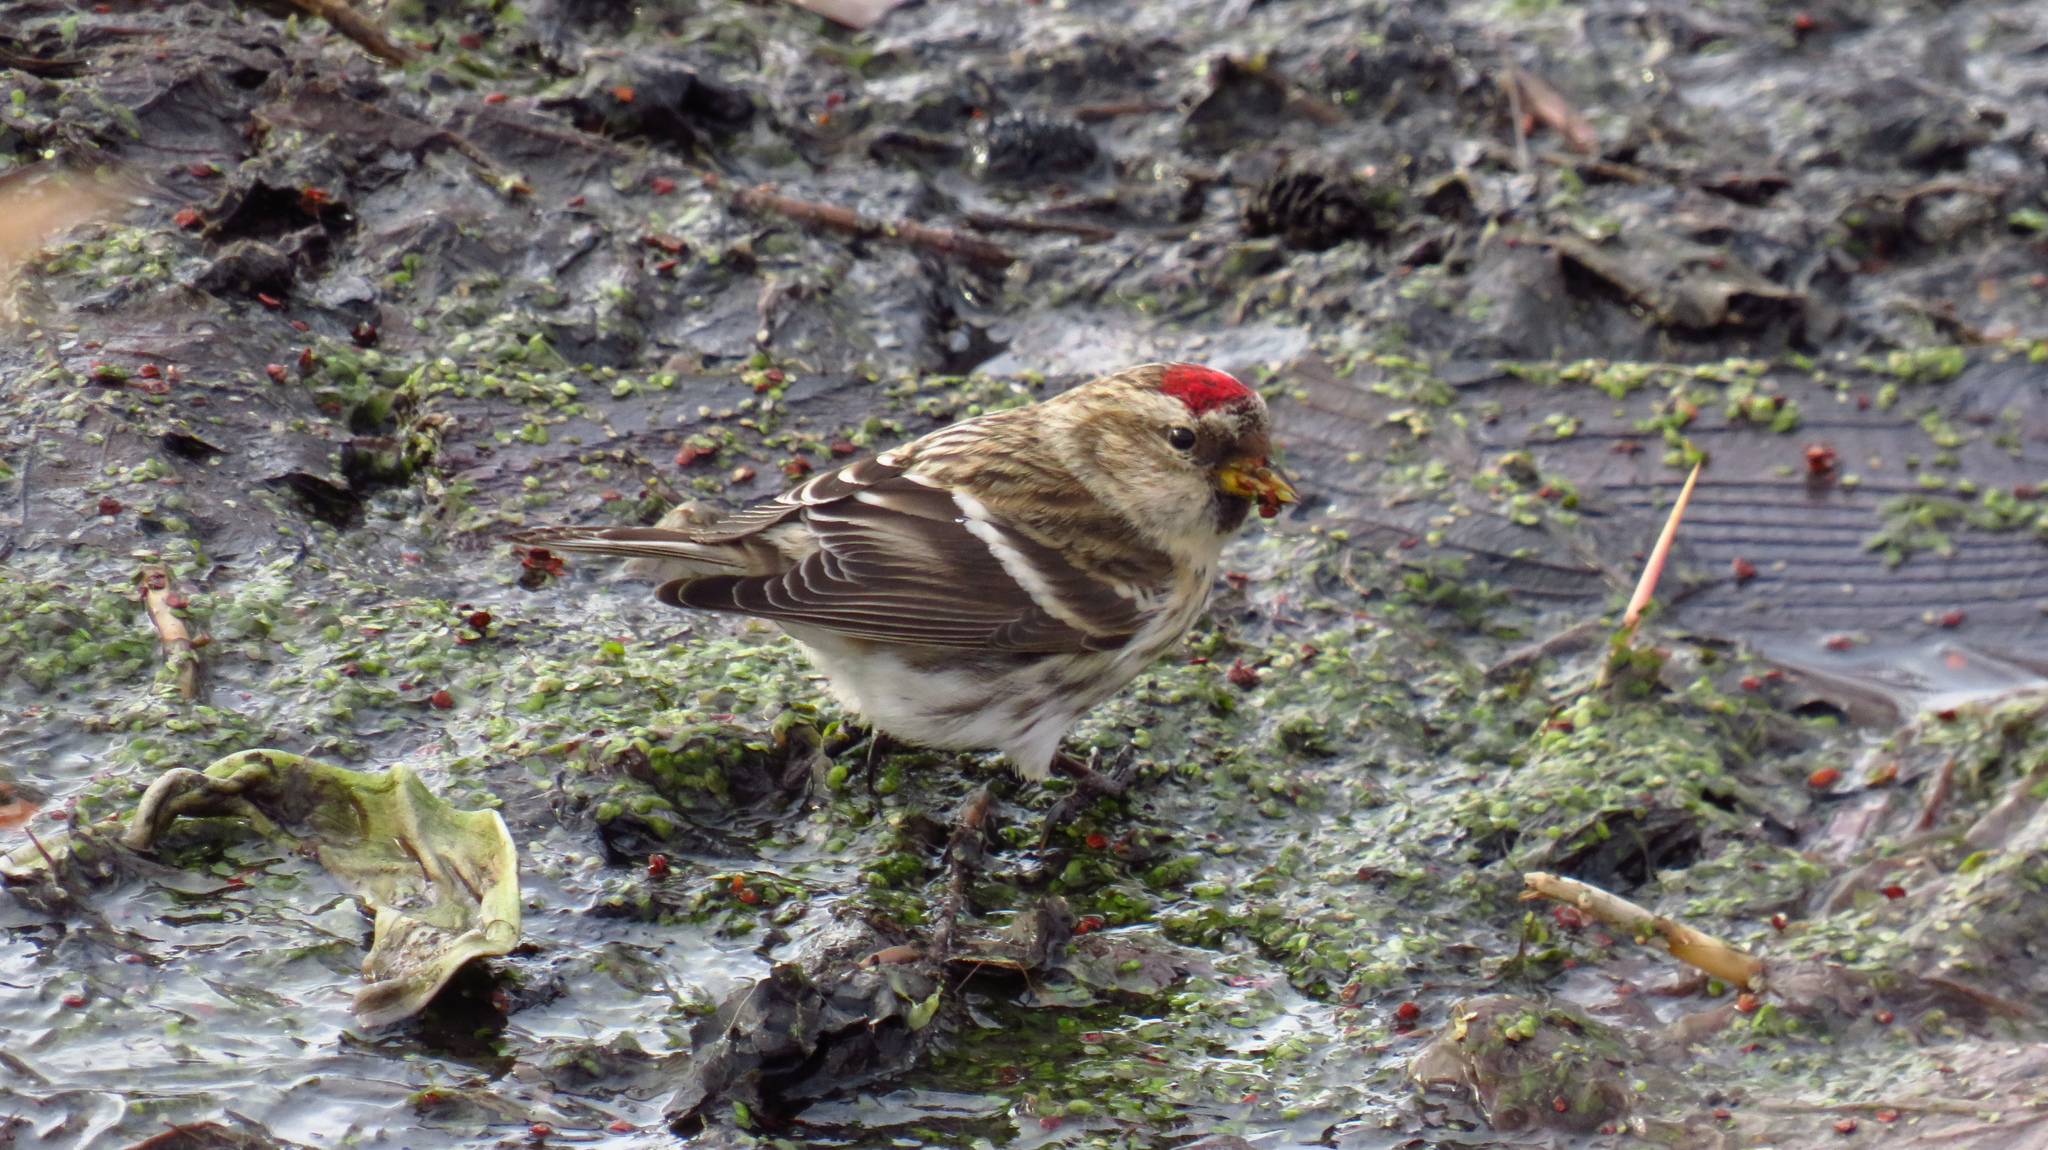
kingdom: Animalia
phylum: Chordata
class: Aves
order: Passeriformes
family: Fringillidae
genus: Acanthis
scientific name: Acanthis flammea
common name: Common redpoll
